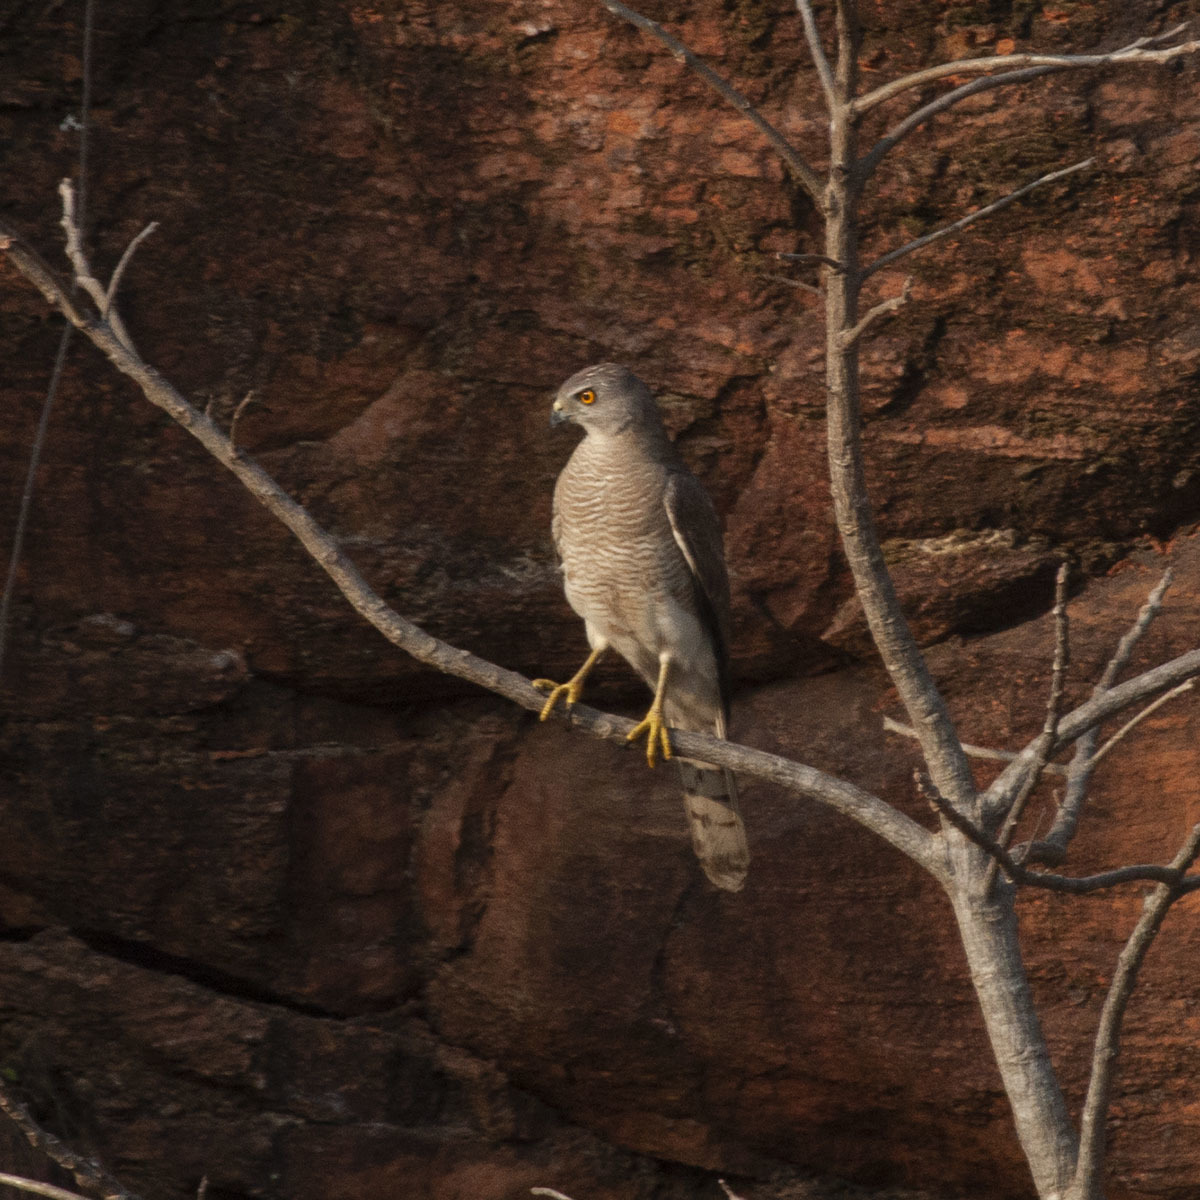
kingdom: Animalia
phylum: Chordata
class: Aves
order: Accipitriformes
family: Accipitridae
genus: Accipiter
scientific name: Accipiter badius
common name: Shikra
